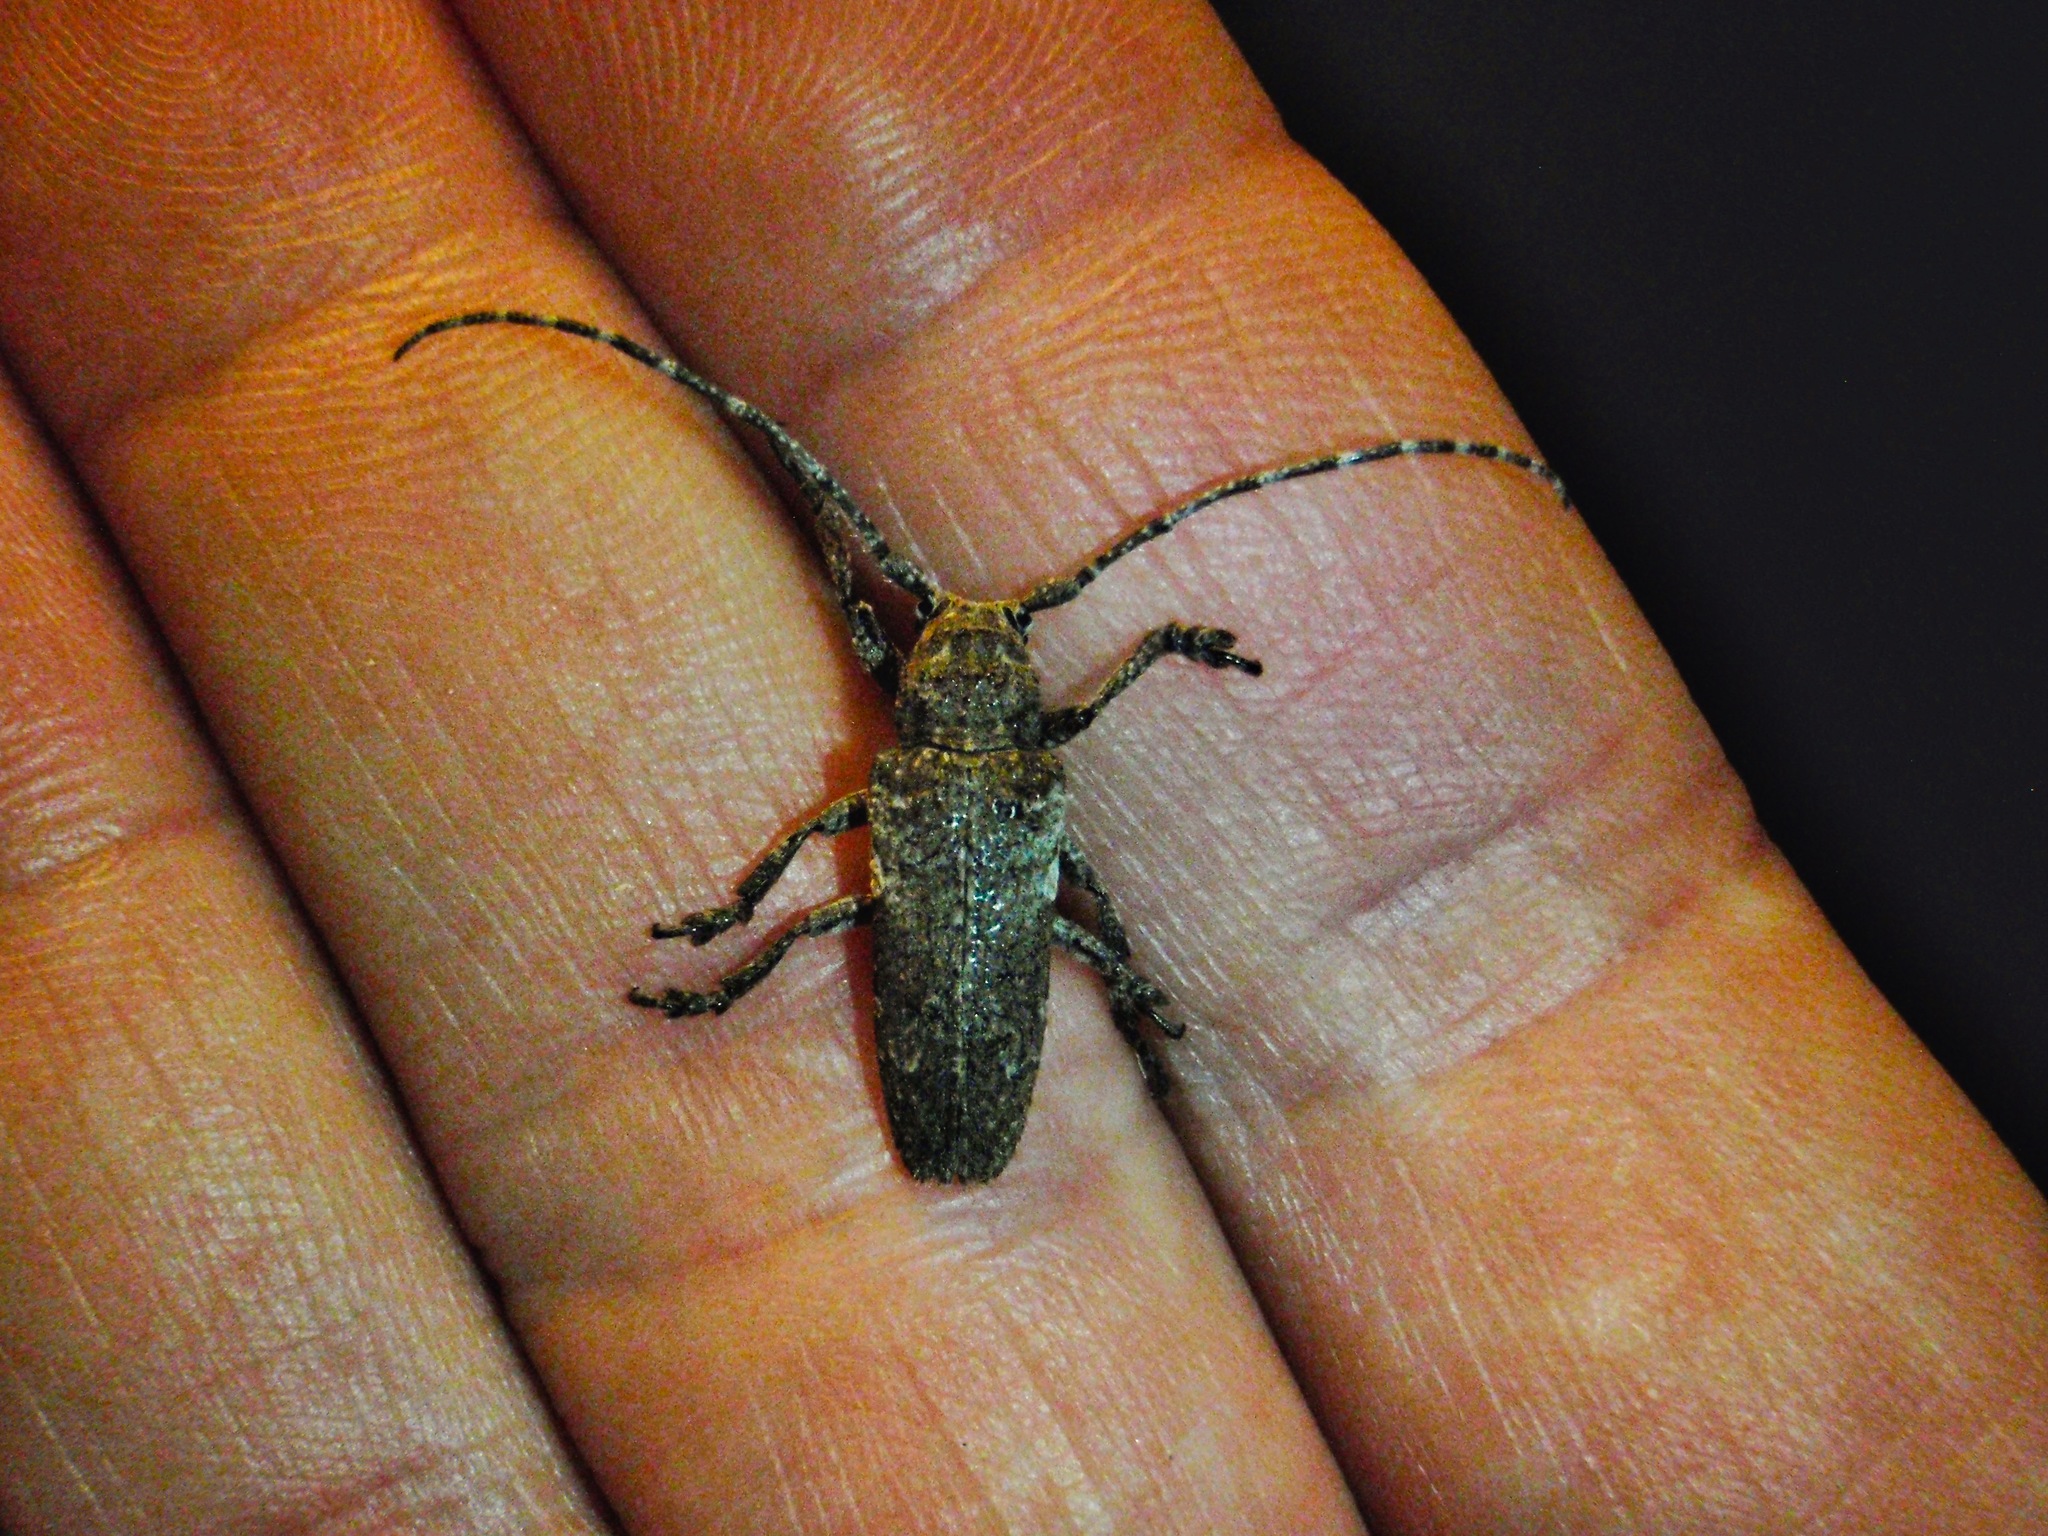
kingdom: Animalia
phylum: Arthropoda
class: Insecta
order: Coleoptera
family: Cerambycidae
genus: Niphona
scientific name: Niphona picticornis
